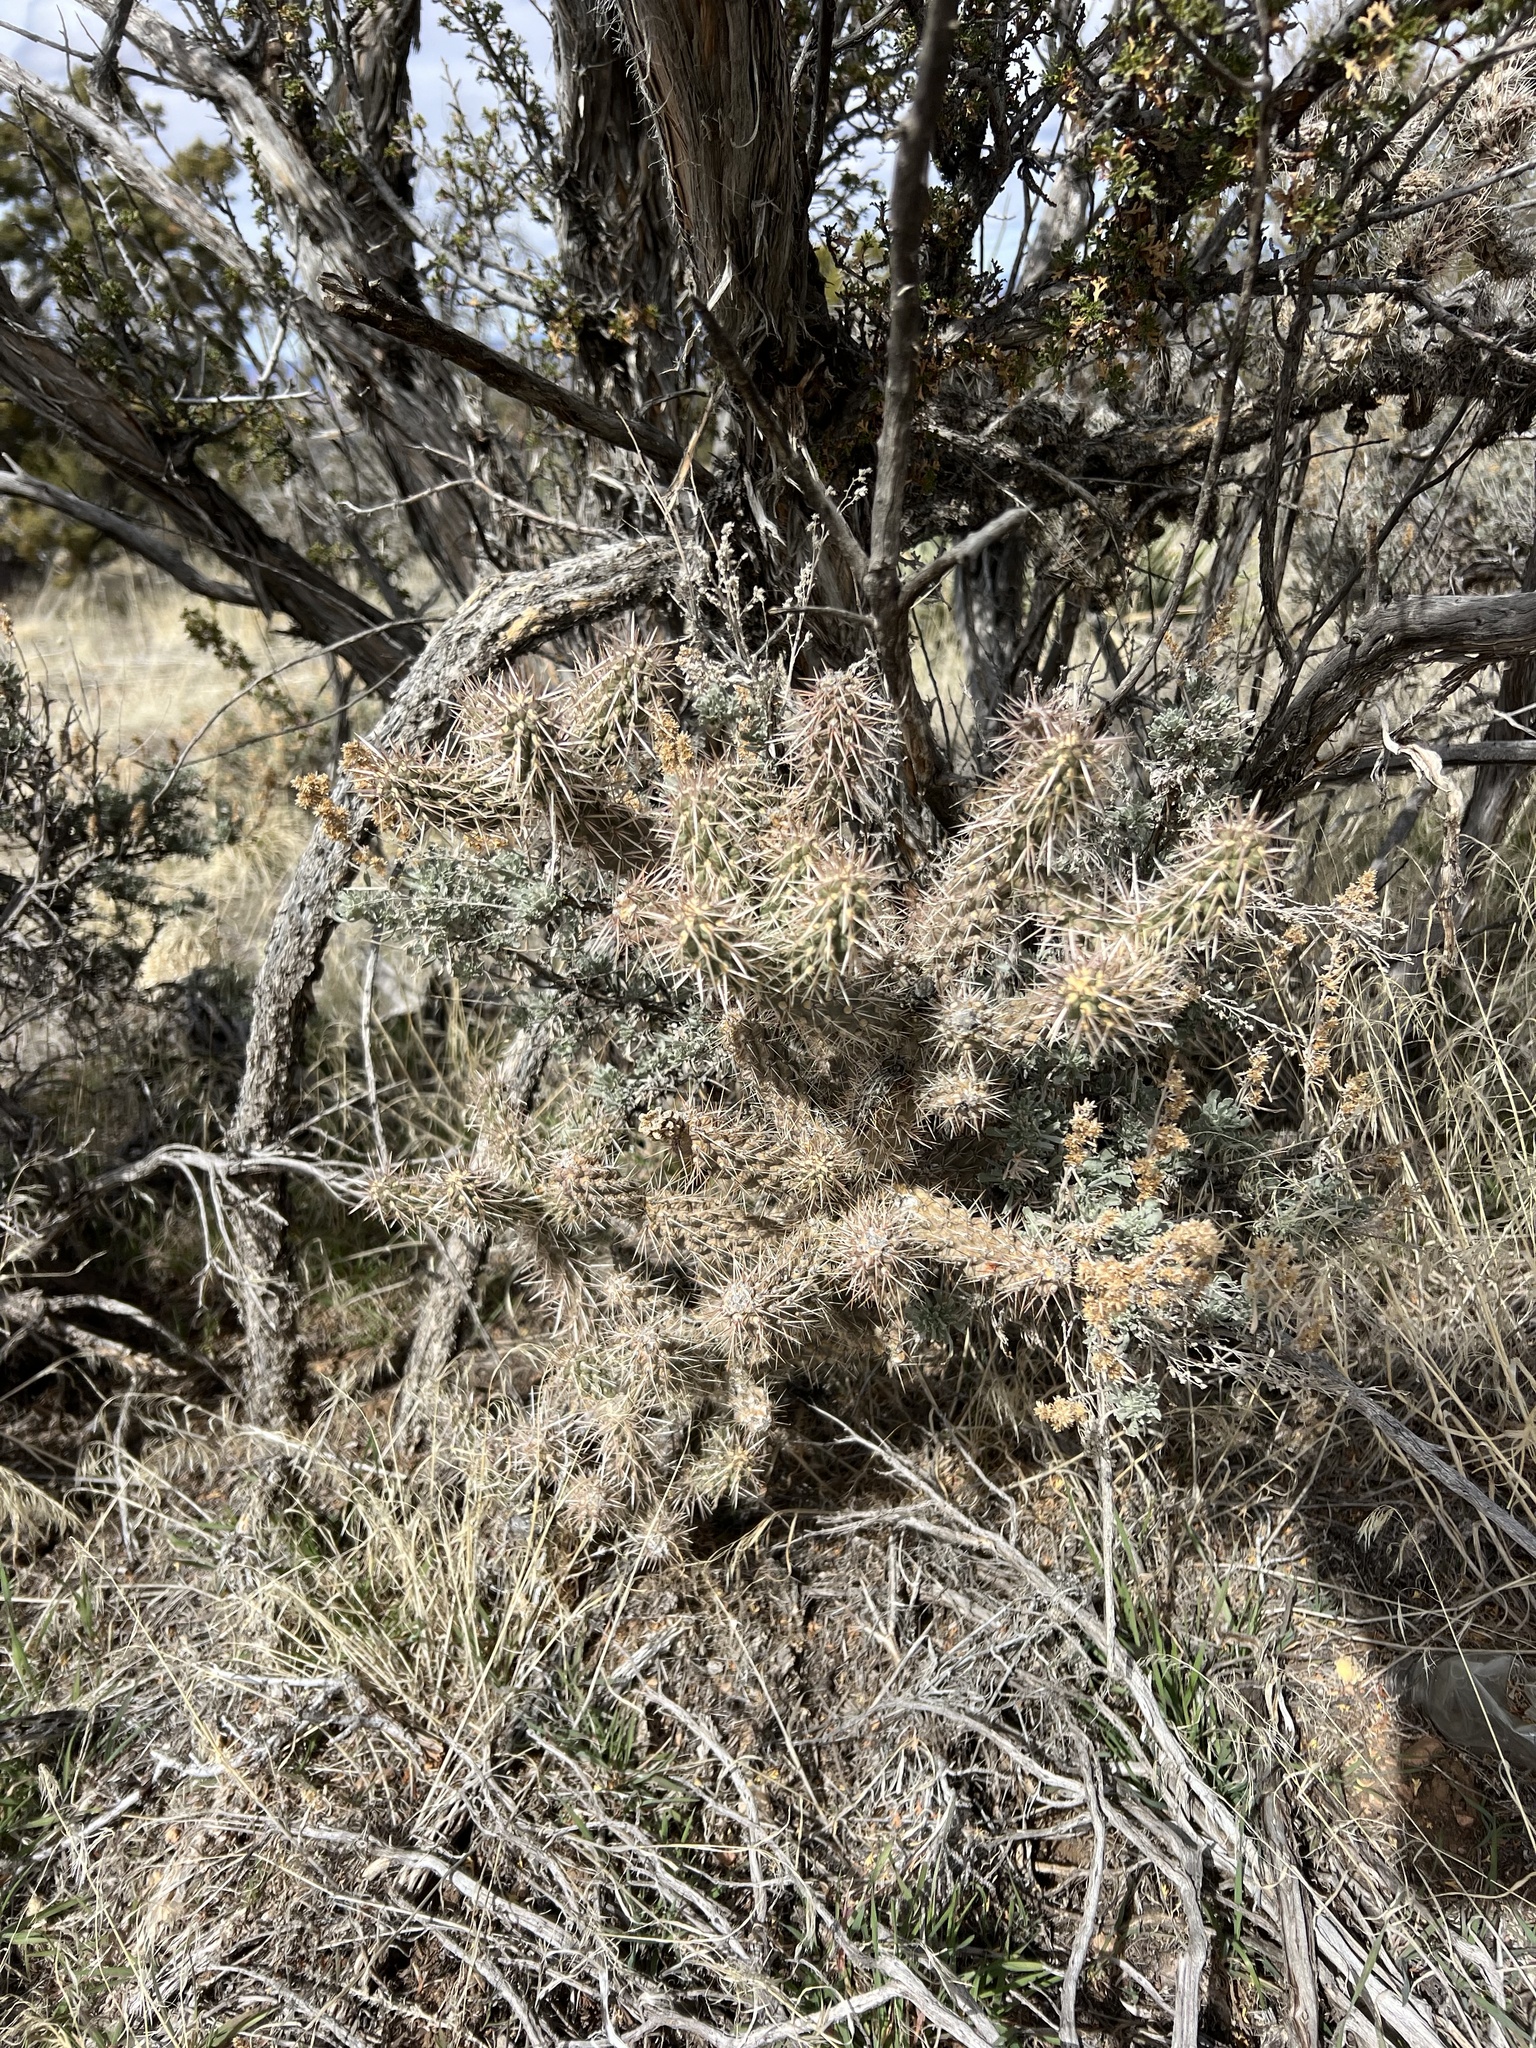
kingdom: Plantae
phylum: Tracheophyta
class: Magnoliopsida
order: Caryophyllales
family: Cactaceae
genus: Cylindropuntia
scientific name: Cylindropuntia whipplei
